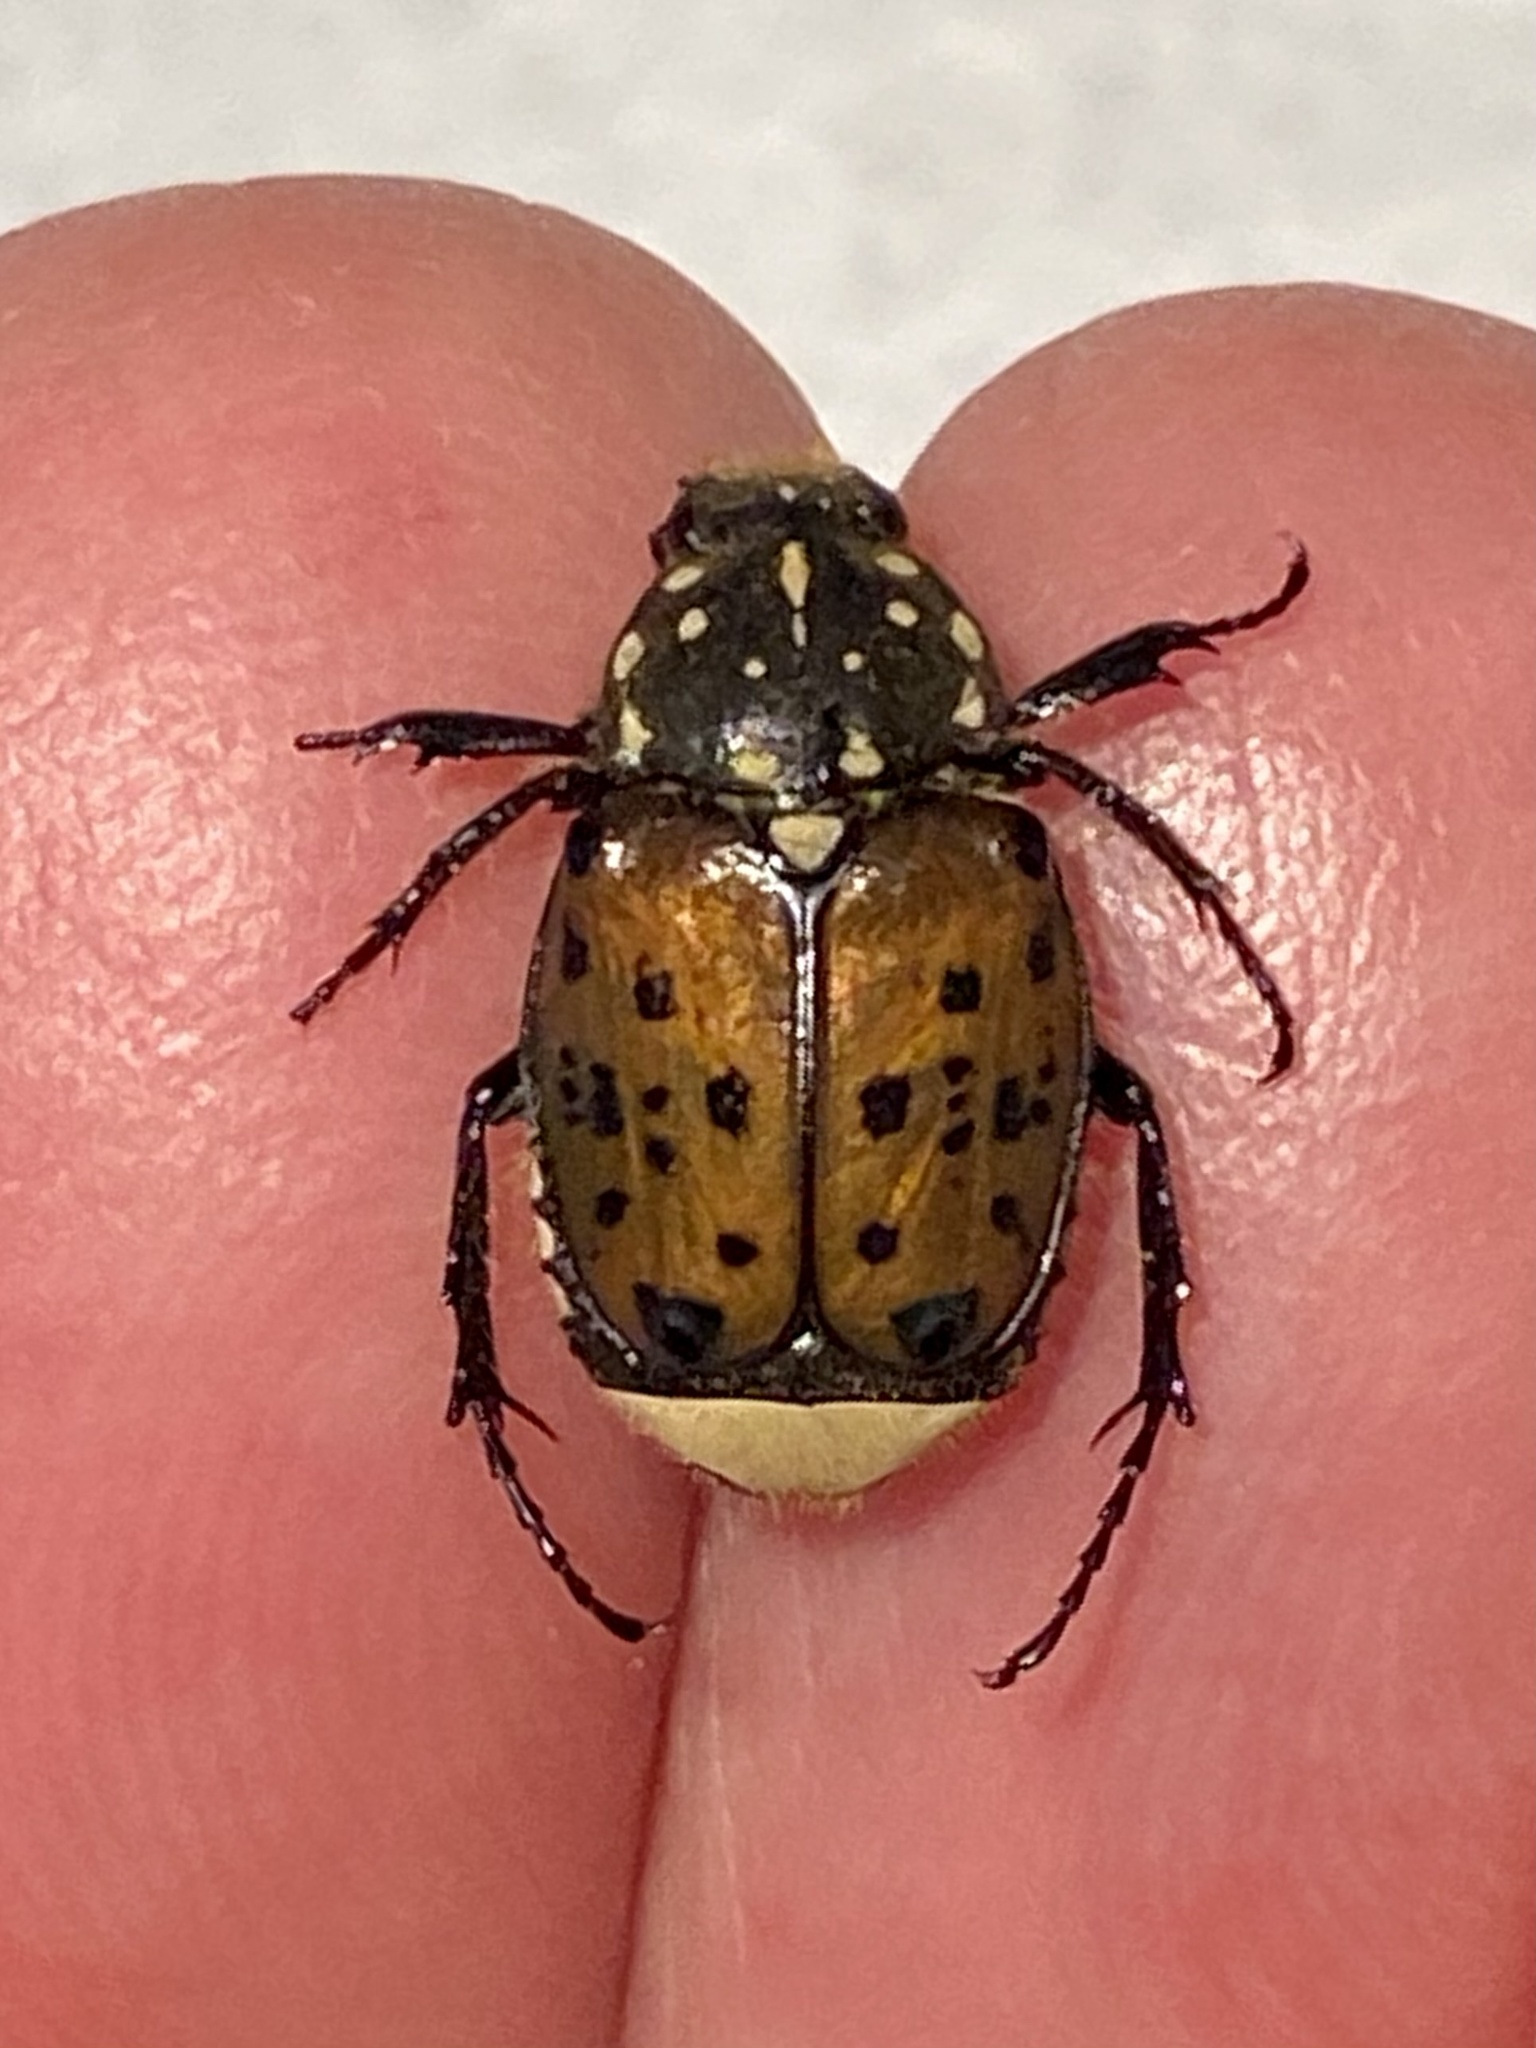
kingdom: Animalia
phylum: Arthropoda
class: Insecta
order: Coleoptera
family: Scarabaeidae
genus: Gnorimella
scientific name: Gnorimella maculosa
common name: Maculate flower beetle
